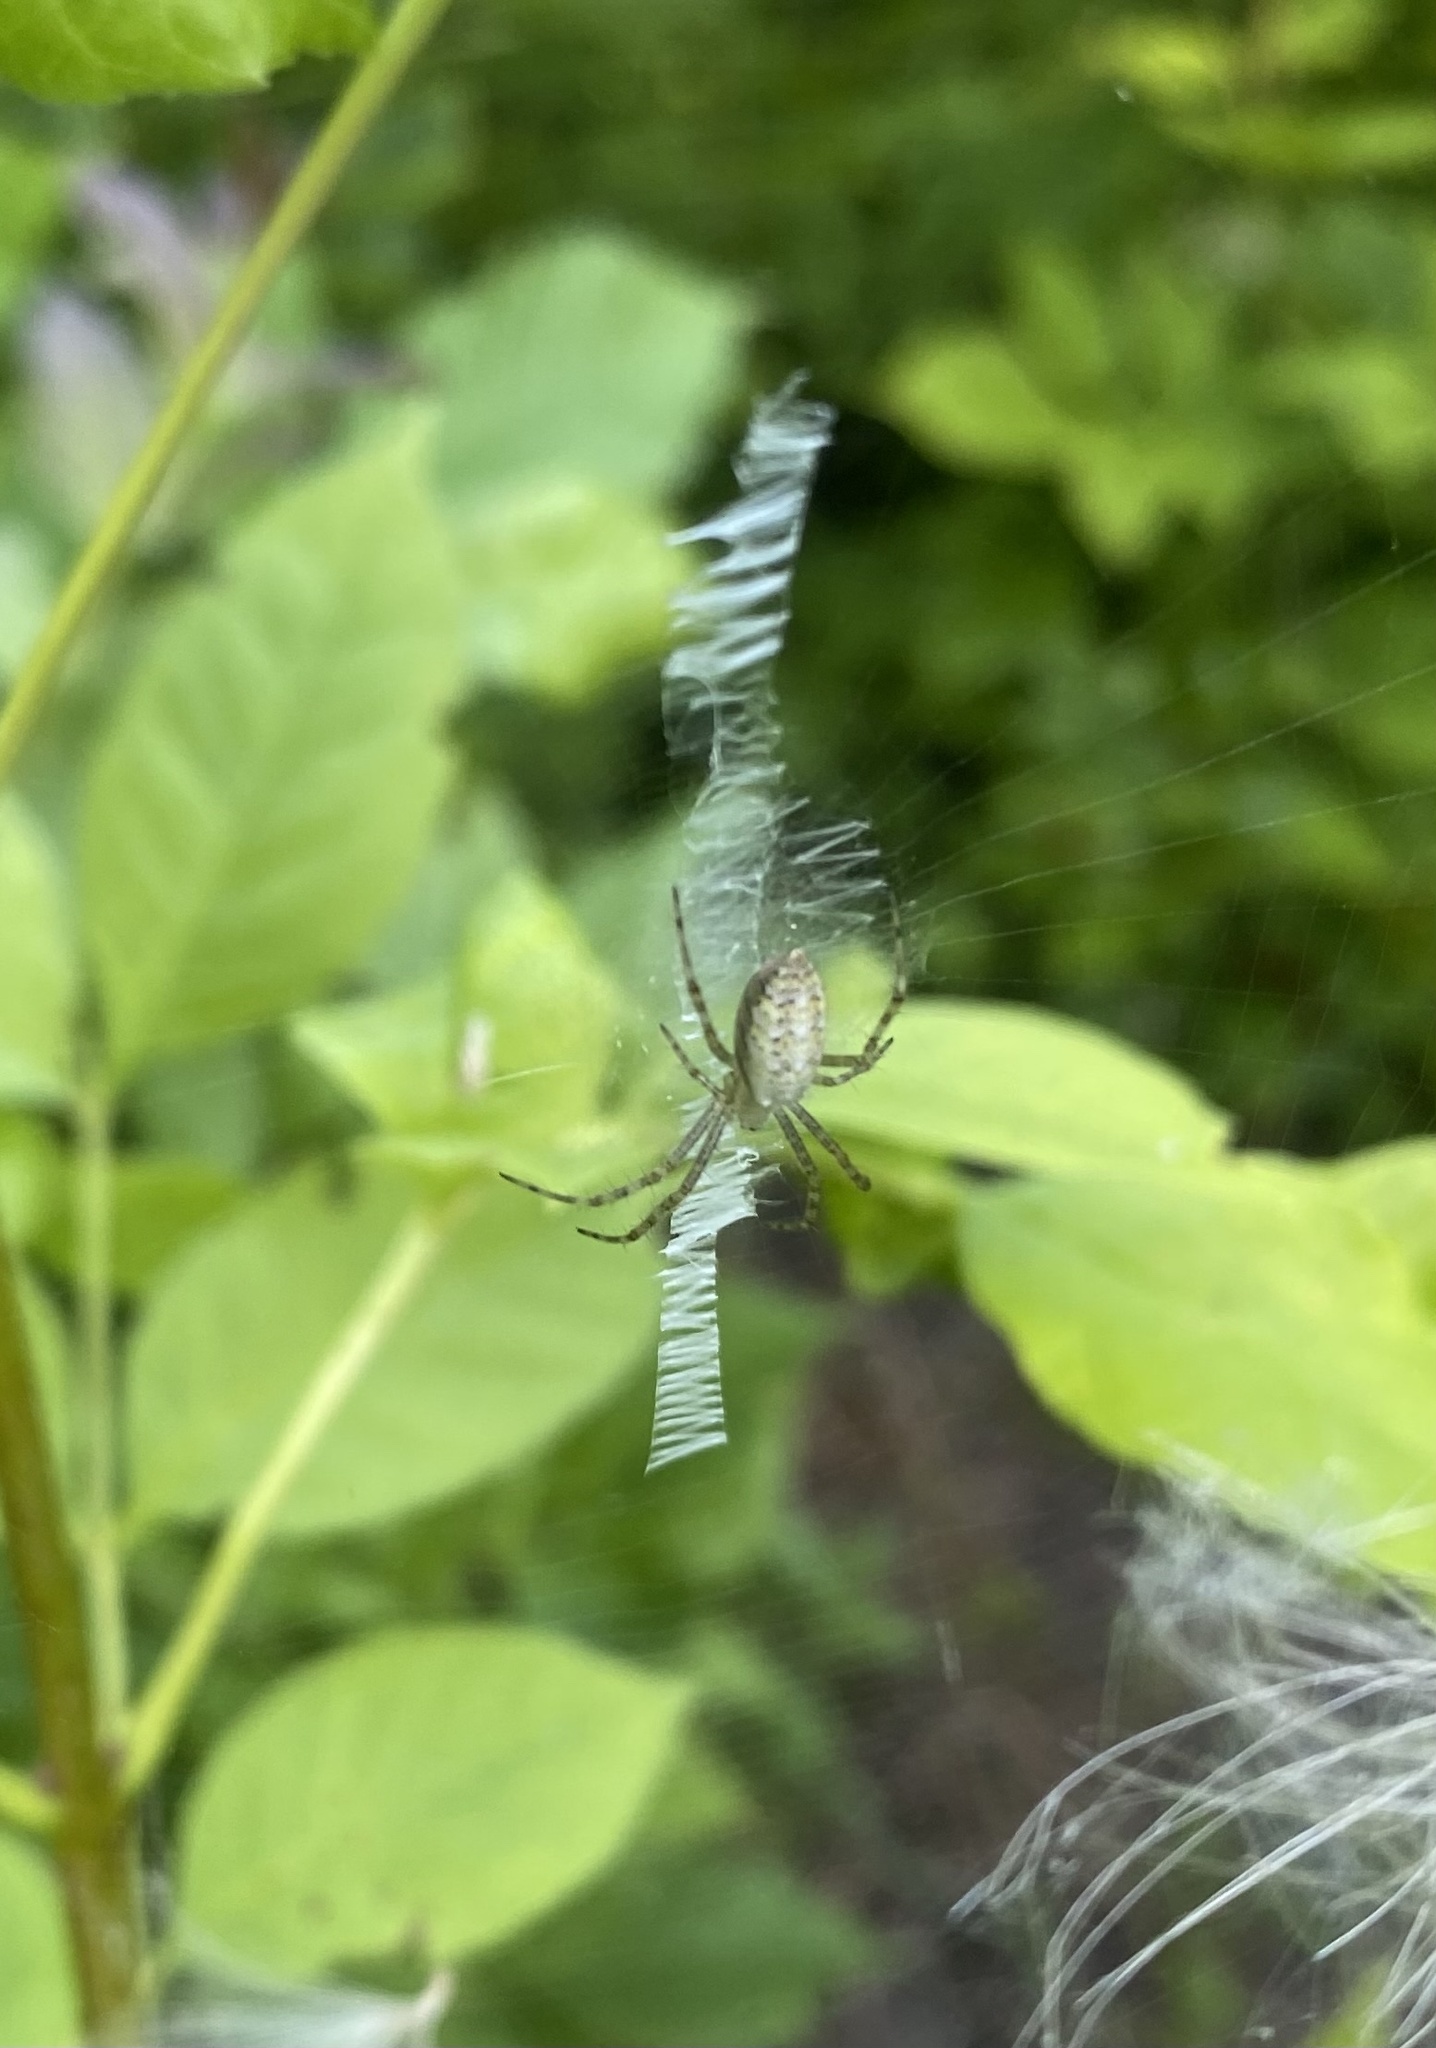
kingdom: Animalia
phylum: Arthropoda
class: Arachnida
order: Araneae
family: Araneidae
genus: Argiope
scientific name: Argiope bruennichi
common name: Wasp spider
